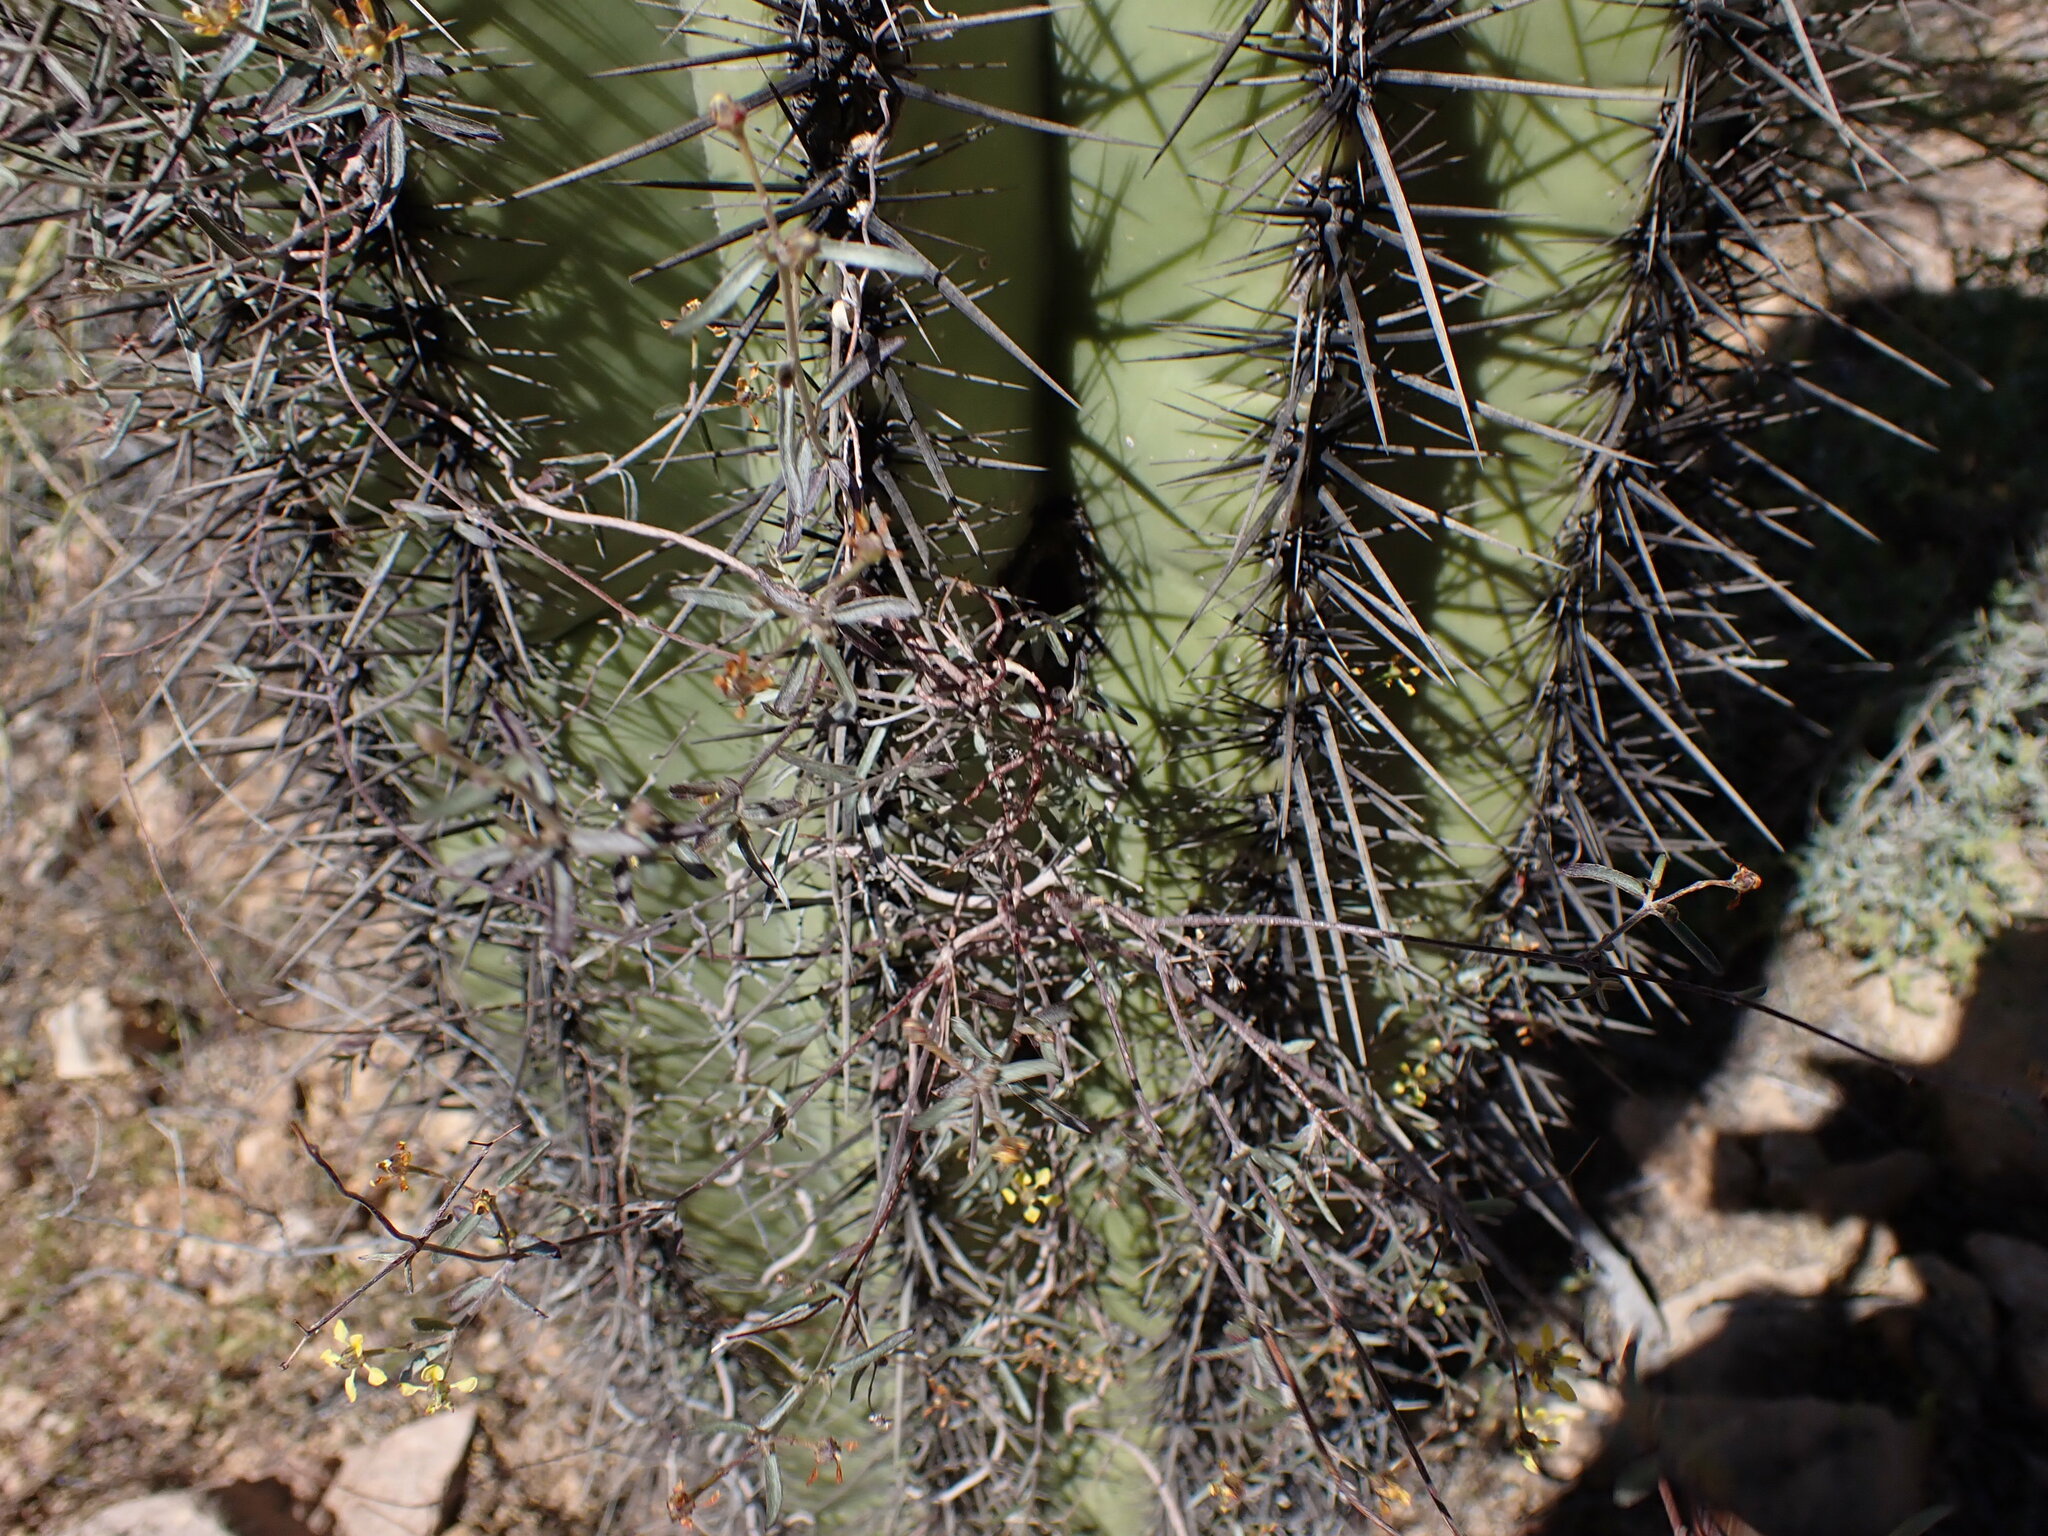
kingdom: Plantae
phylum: Tracheophyta
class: Magnoliopsida
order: Malpighiales
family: Malpighiaceae
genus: Cottsia
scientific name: Cottsia gracilis
